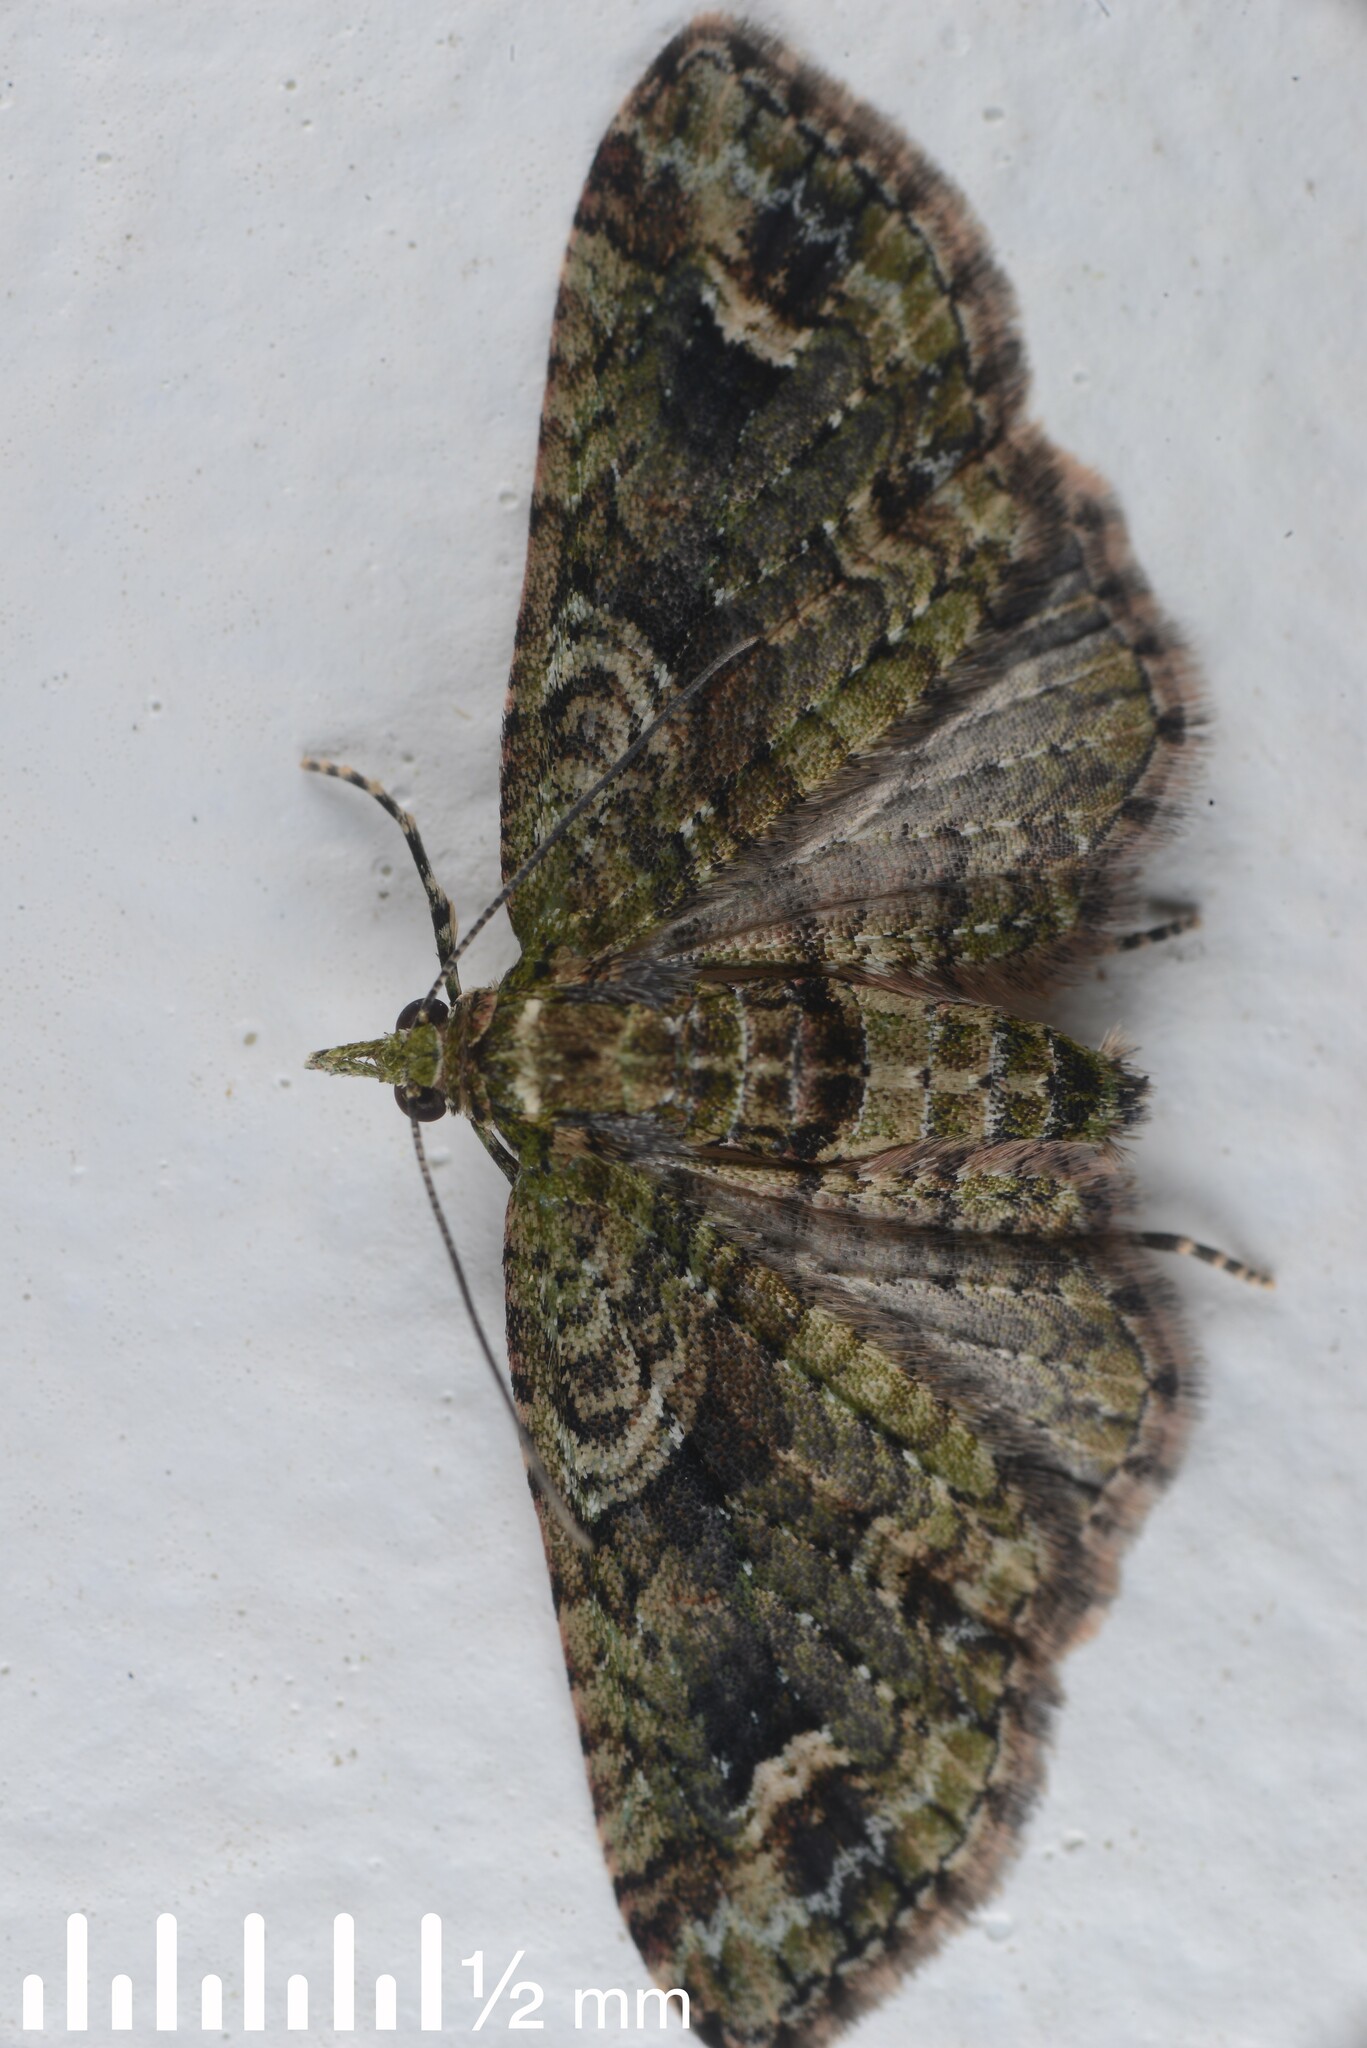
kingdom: Animalia
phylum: Arthropoda
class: Insecta
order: Lepidoptera
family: Geometridae
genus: Idaea
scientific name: Idaea mutanda
